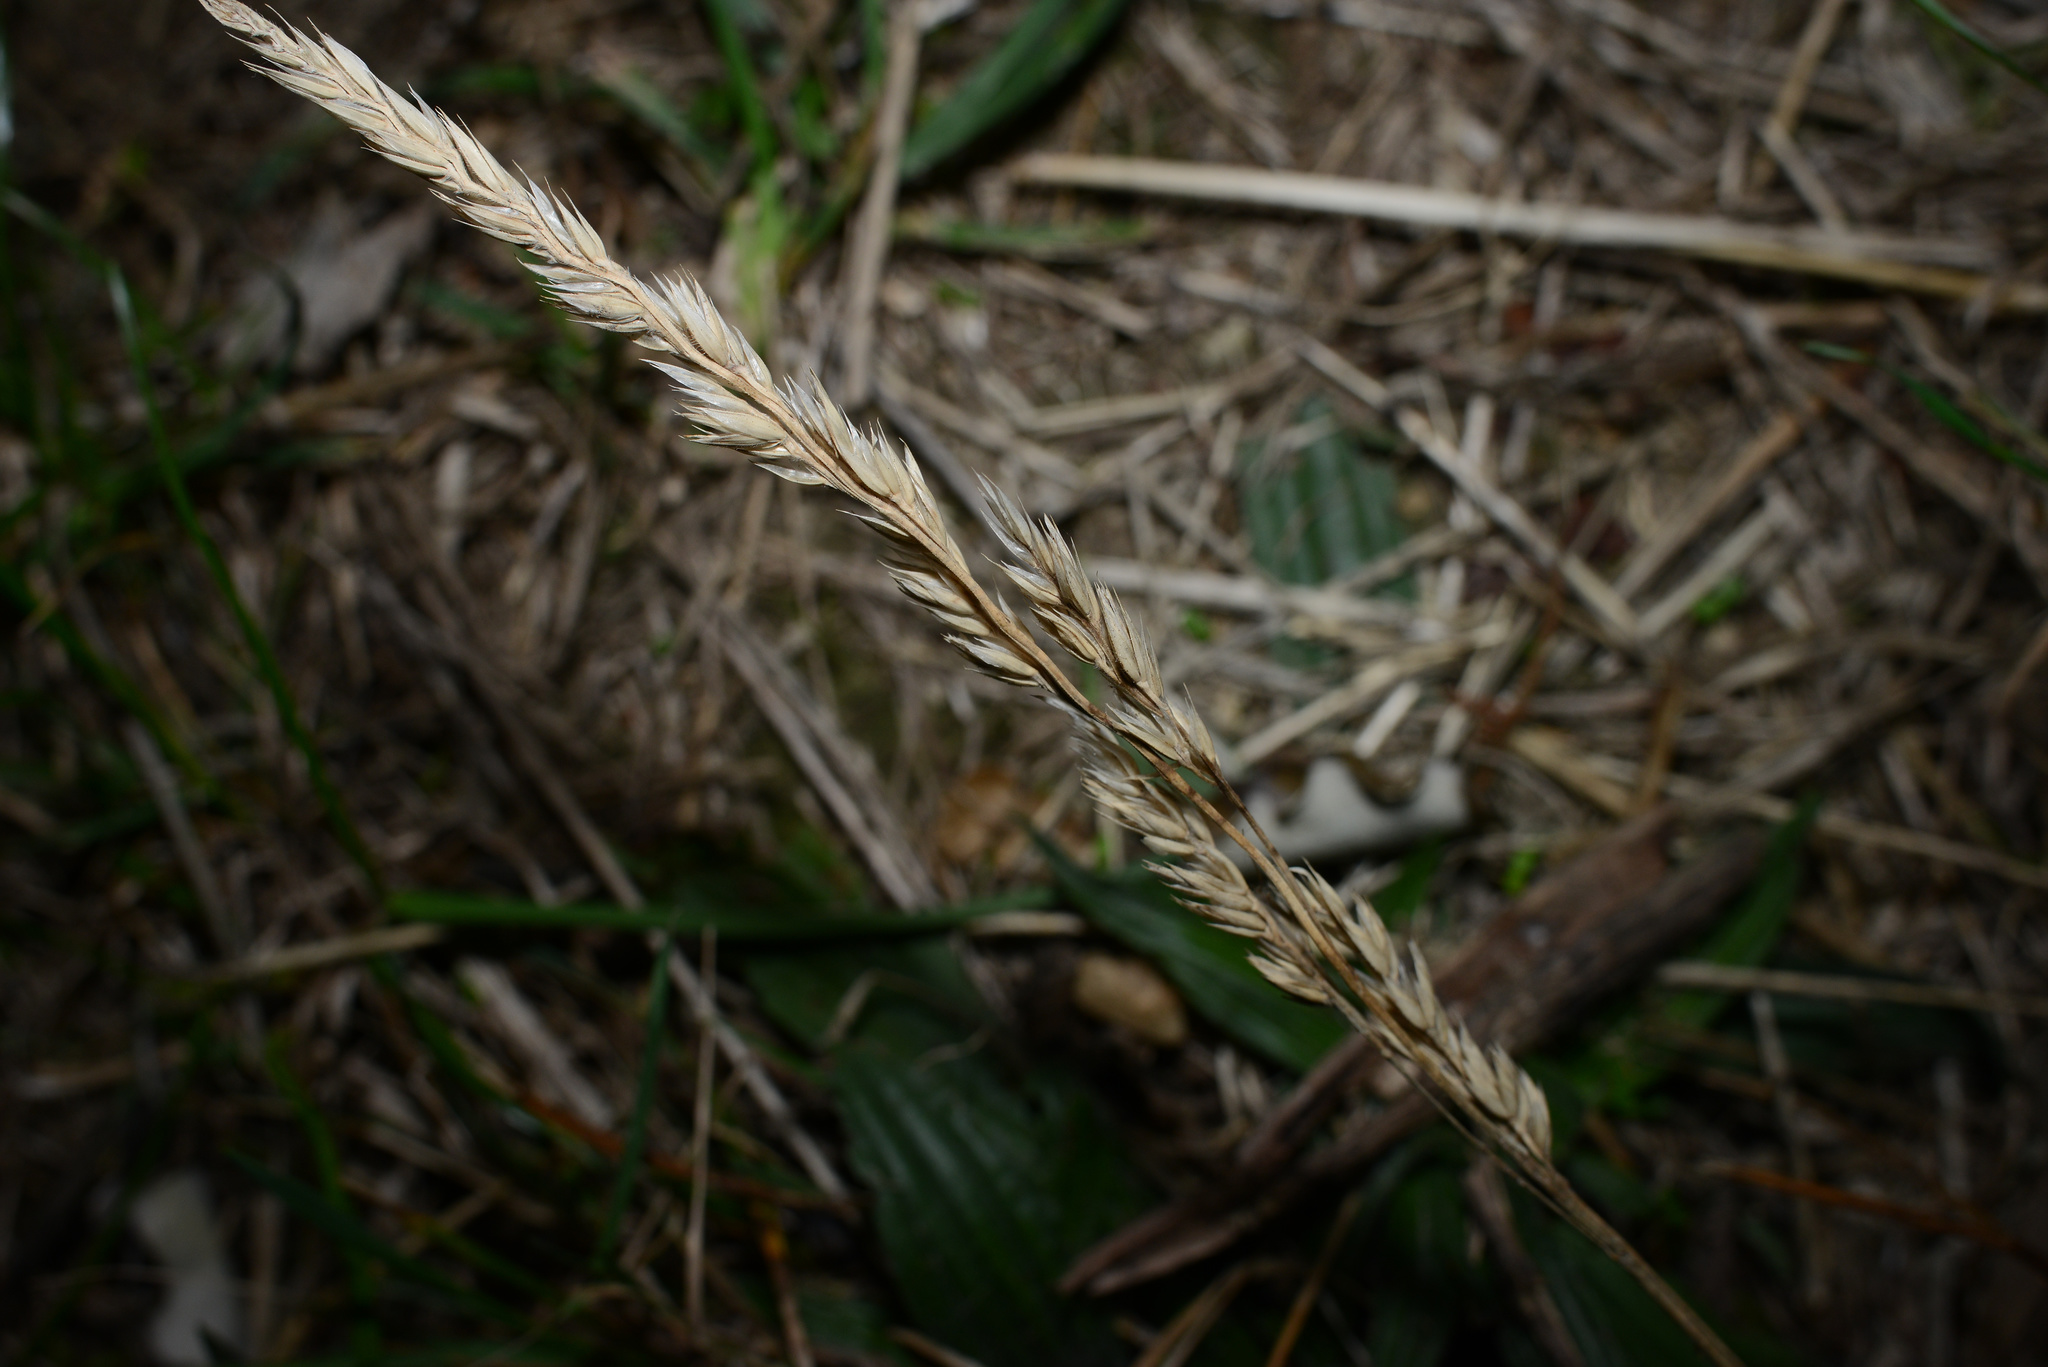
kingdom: Plantae
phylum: Tracheophyta
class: Liliopsida
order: Poales
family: Poaceae
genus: Lolium
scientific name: Lolium perenne
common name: Perennial ryegrass
